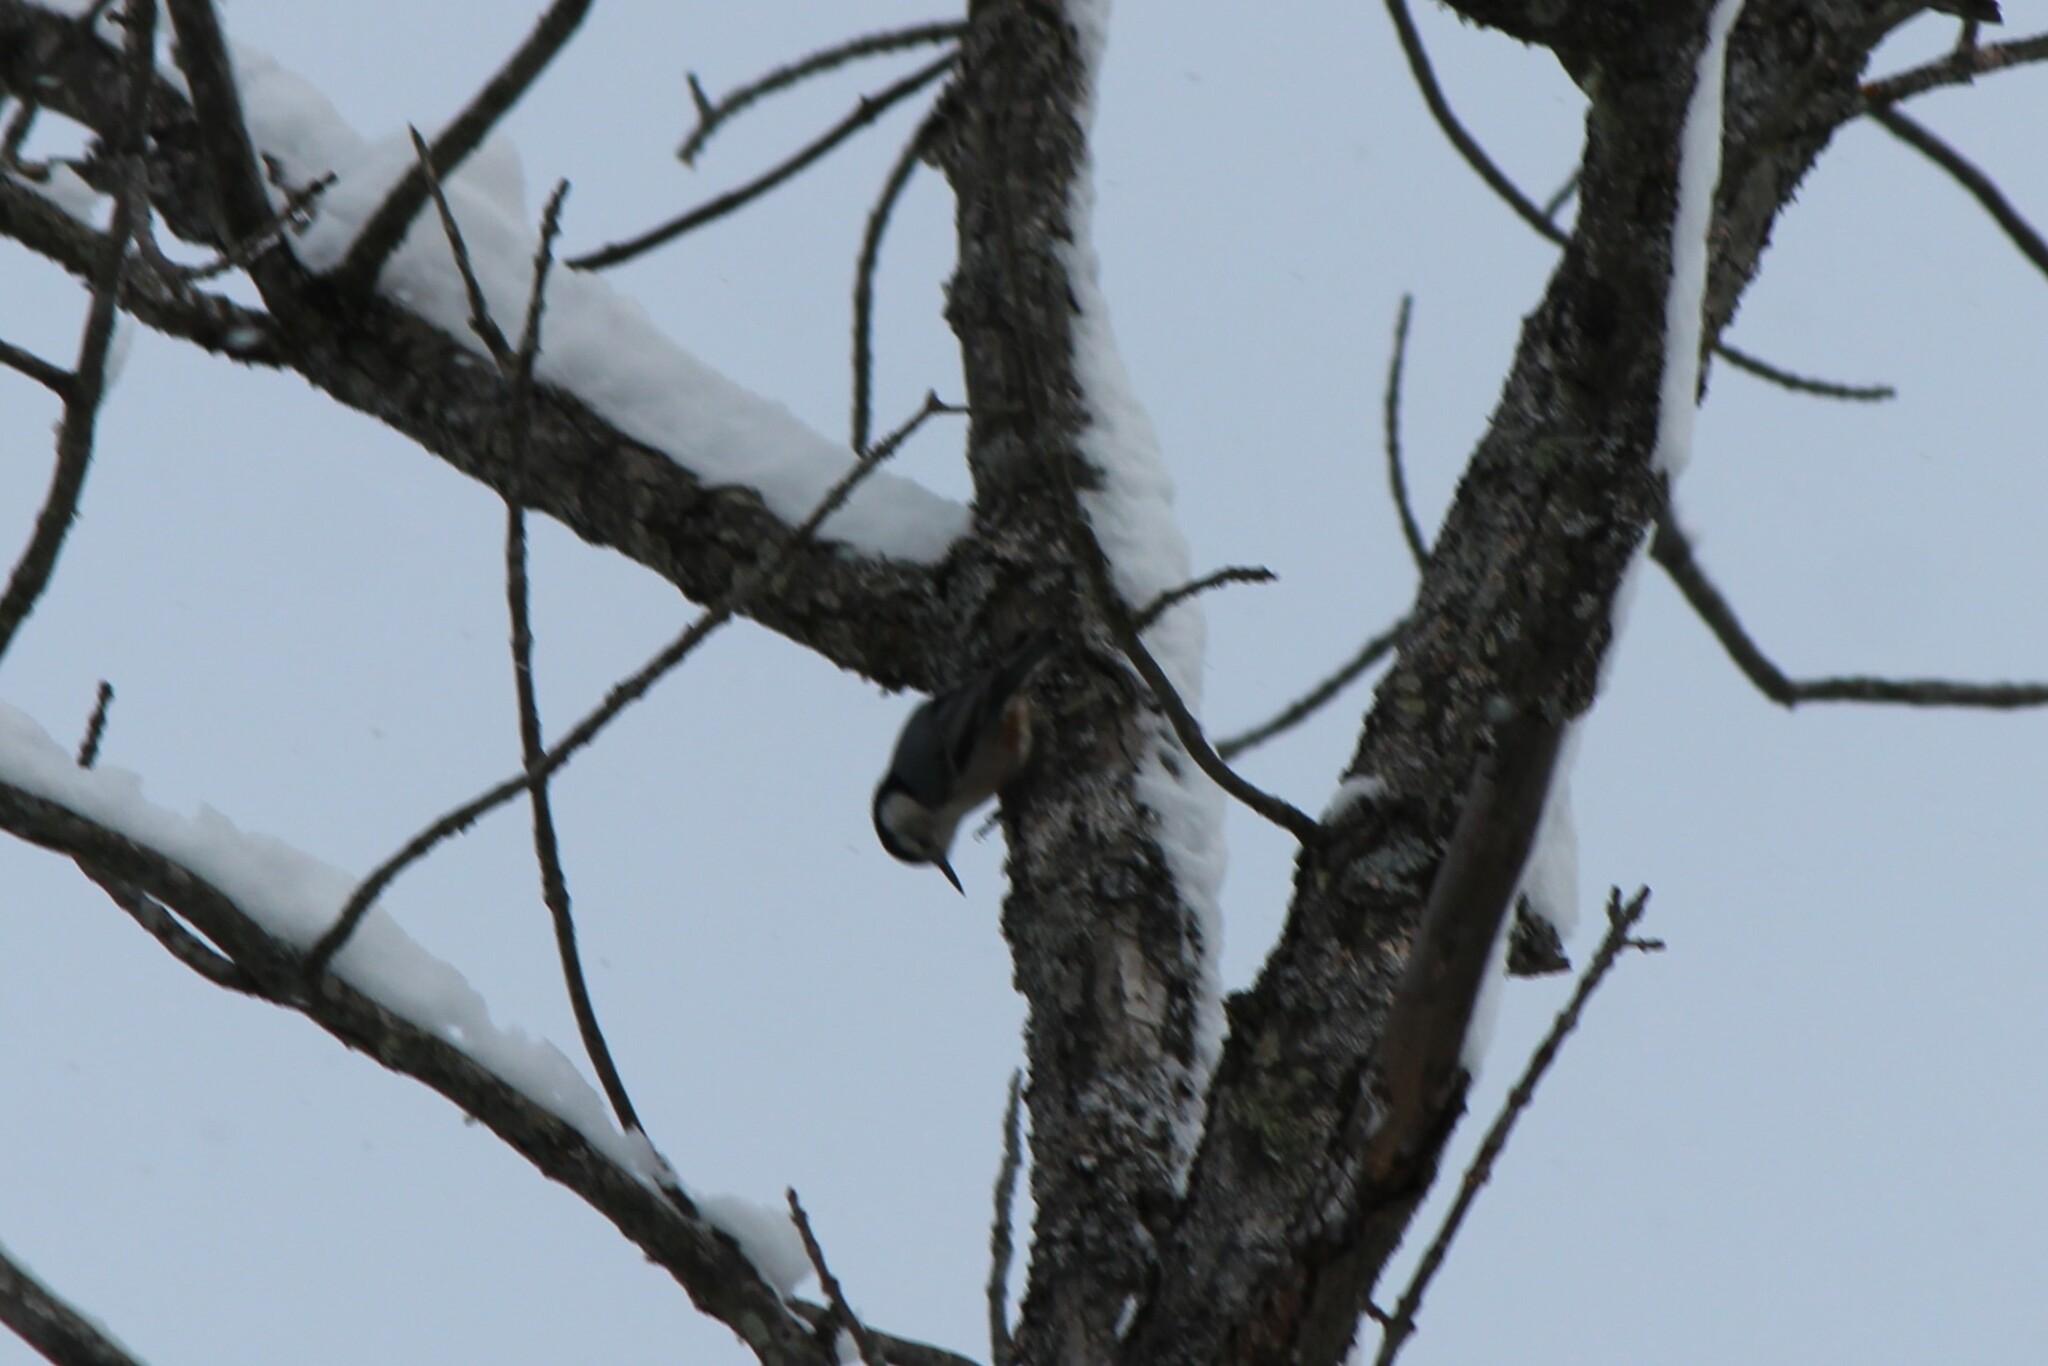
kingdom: Animalia
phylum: Chordata
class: Aves
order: Passeriformes
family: Sittidae
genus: Sitta
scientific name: Sitta carolinensis
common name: White-breasted nuthatch
